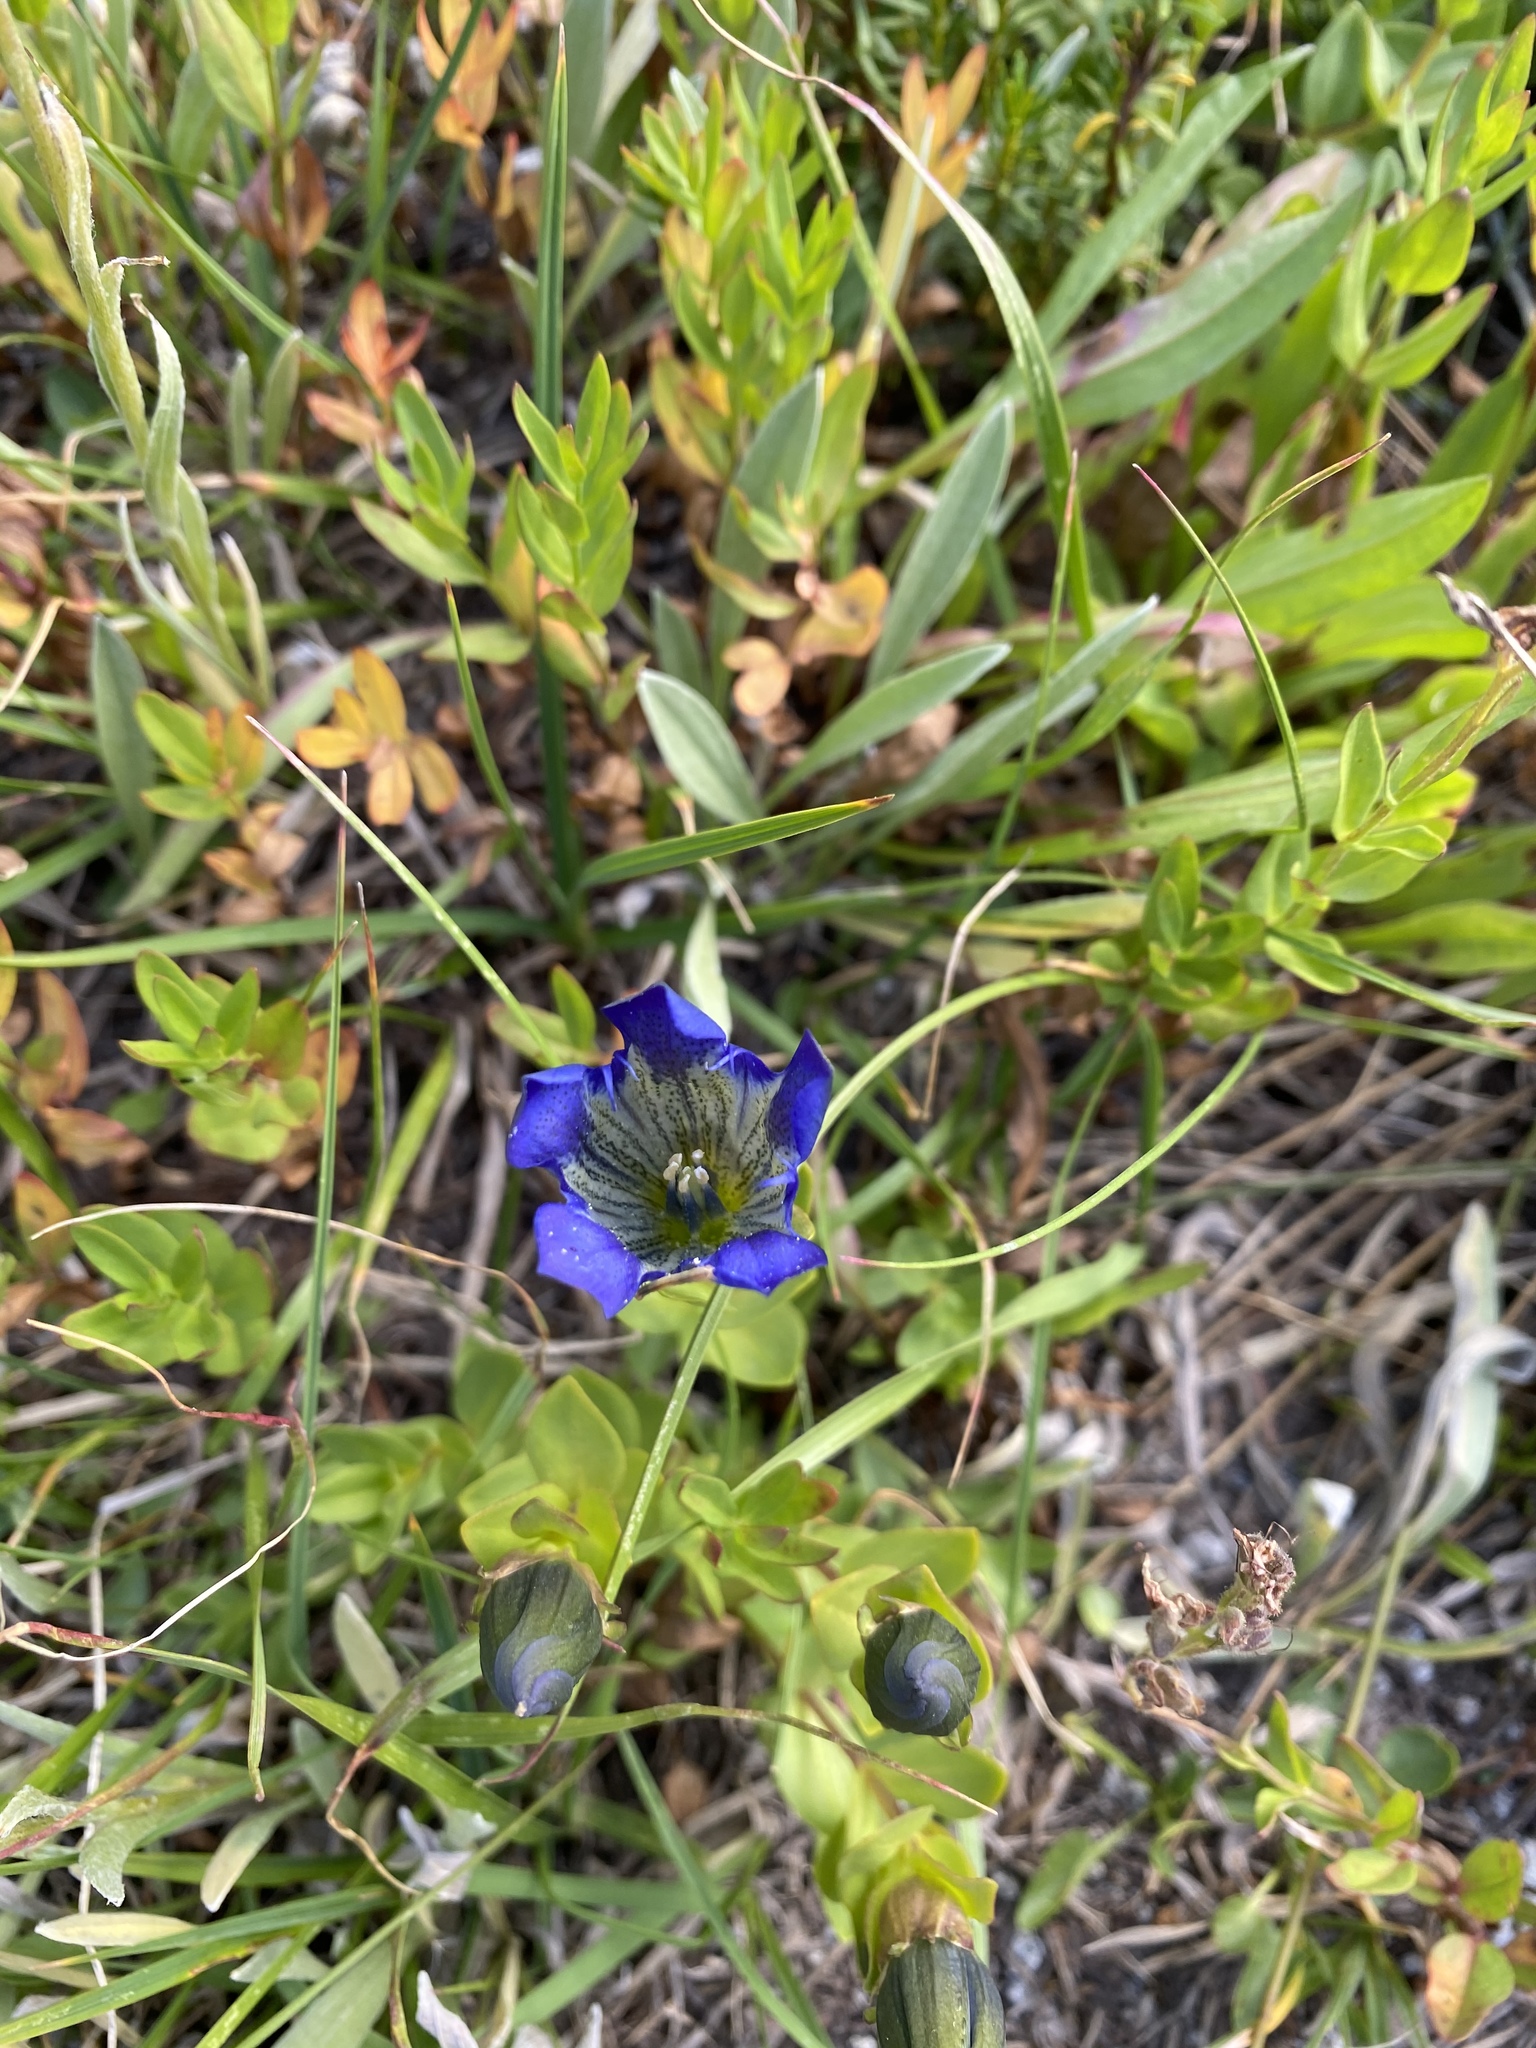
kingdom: Plantae
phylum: Tracheophyta
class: Magnoliopsida
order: Gentianales
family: Gentianaceae
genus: Gentiana
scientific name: Gentiana calycosa
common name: Rainier pleated gentian
